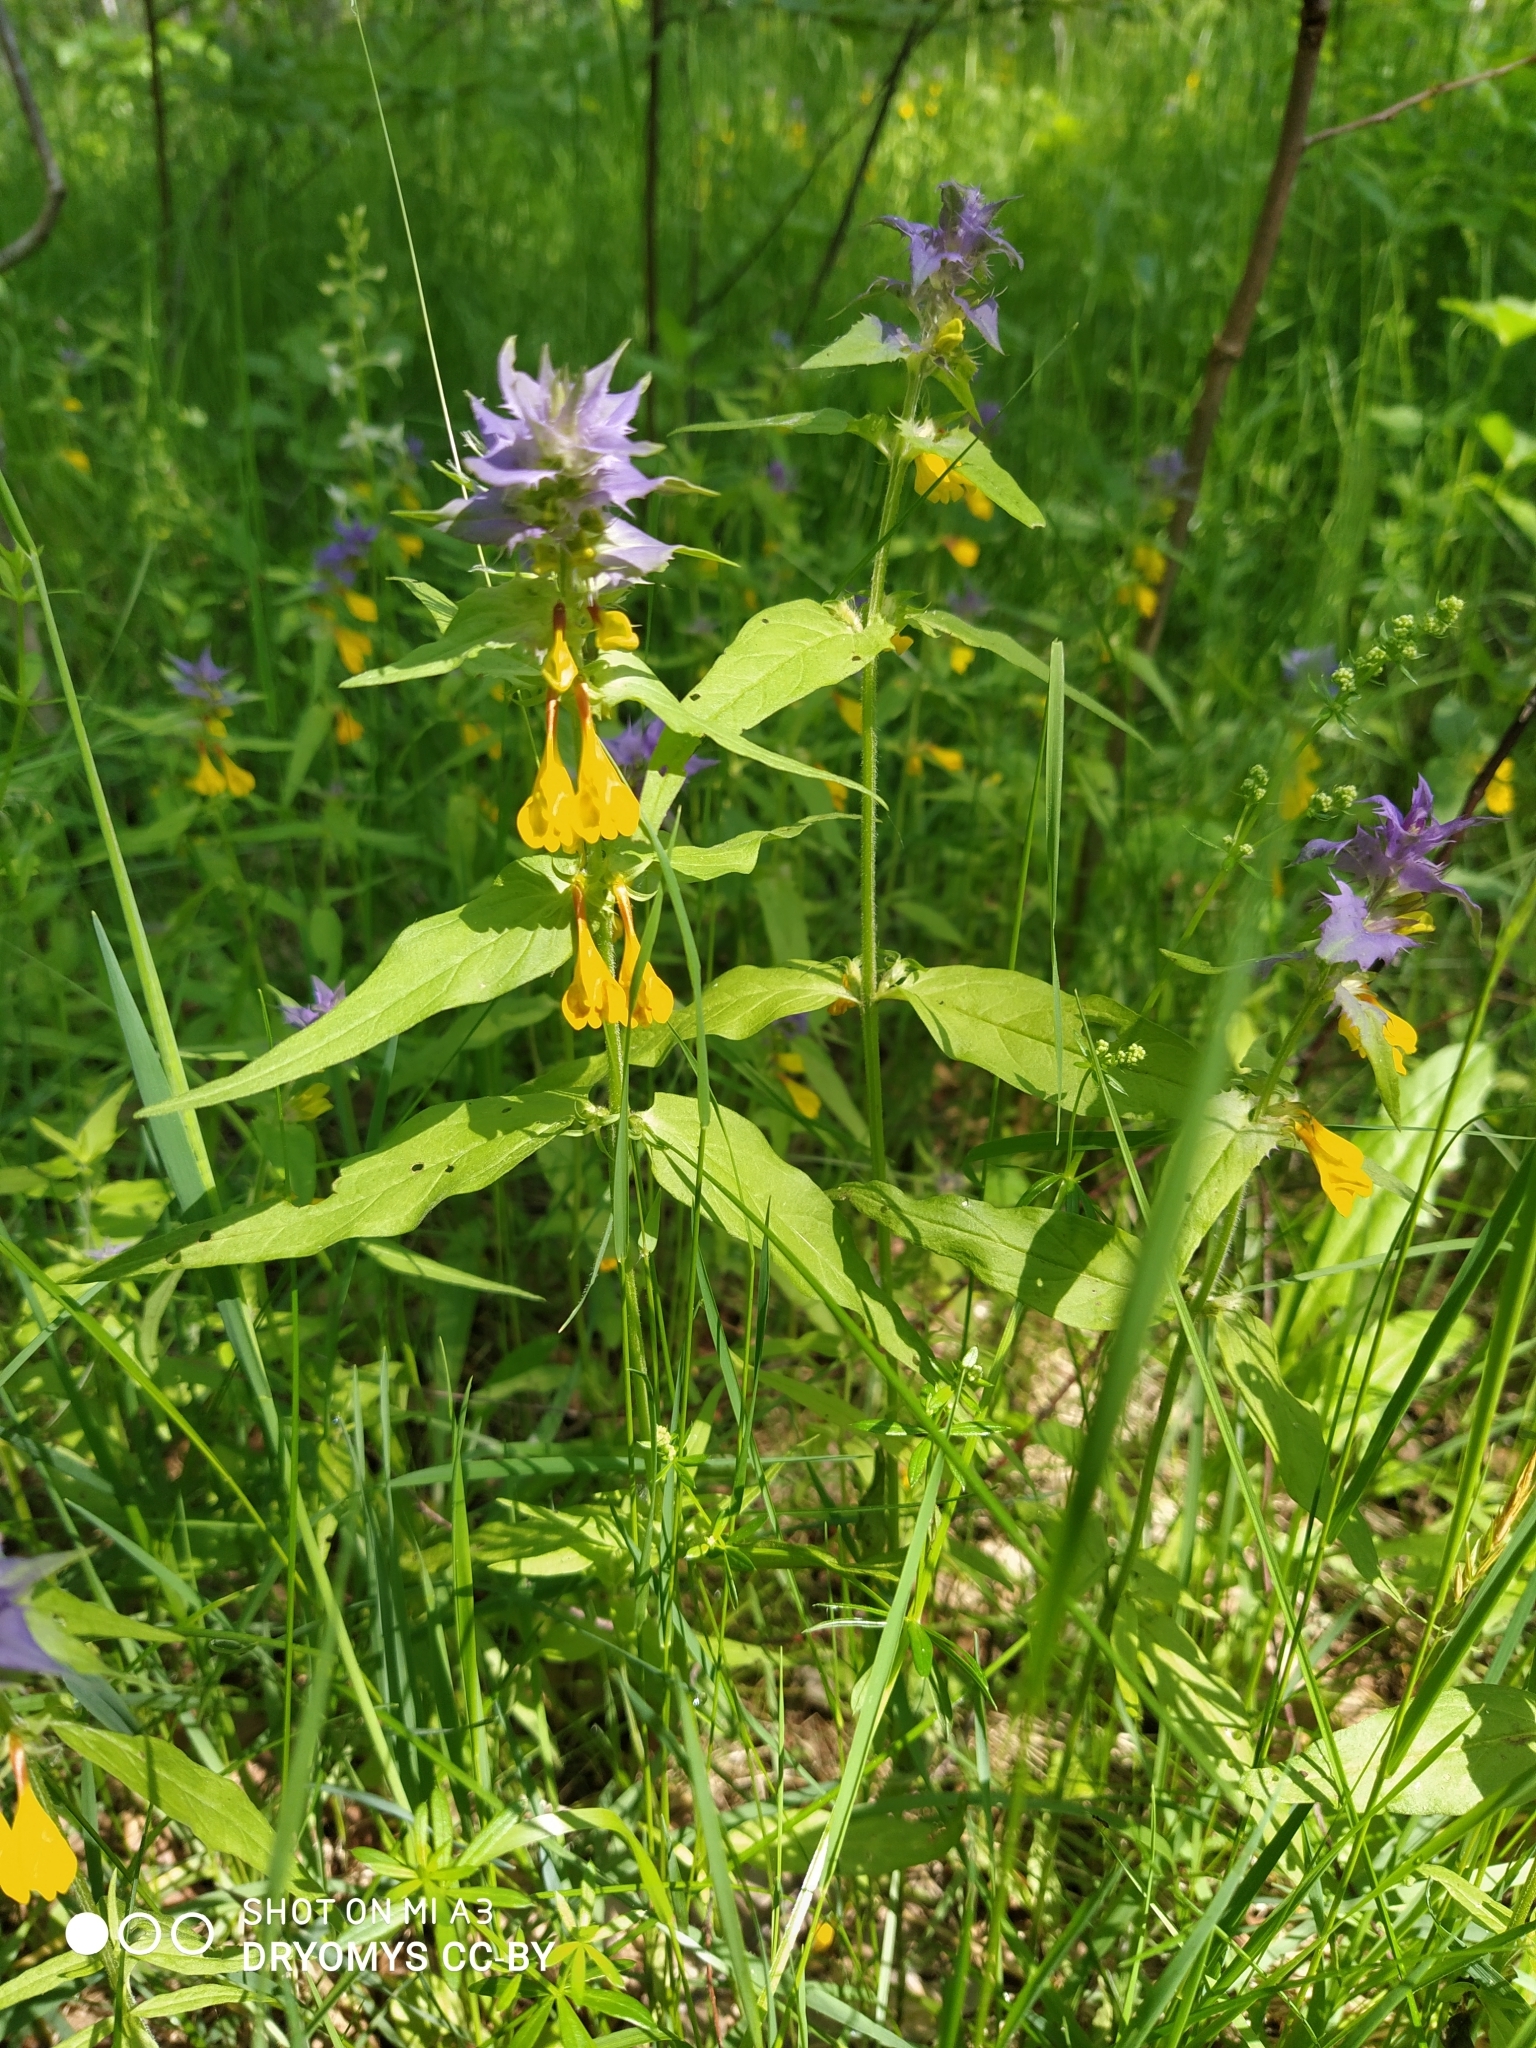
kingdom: Plantae
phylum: Tracheophyta
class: Magnoliopsida
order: Lamiales
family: Orobanchaceae
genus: Melampyrum
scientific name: Melampyrum nemorosum
